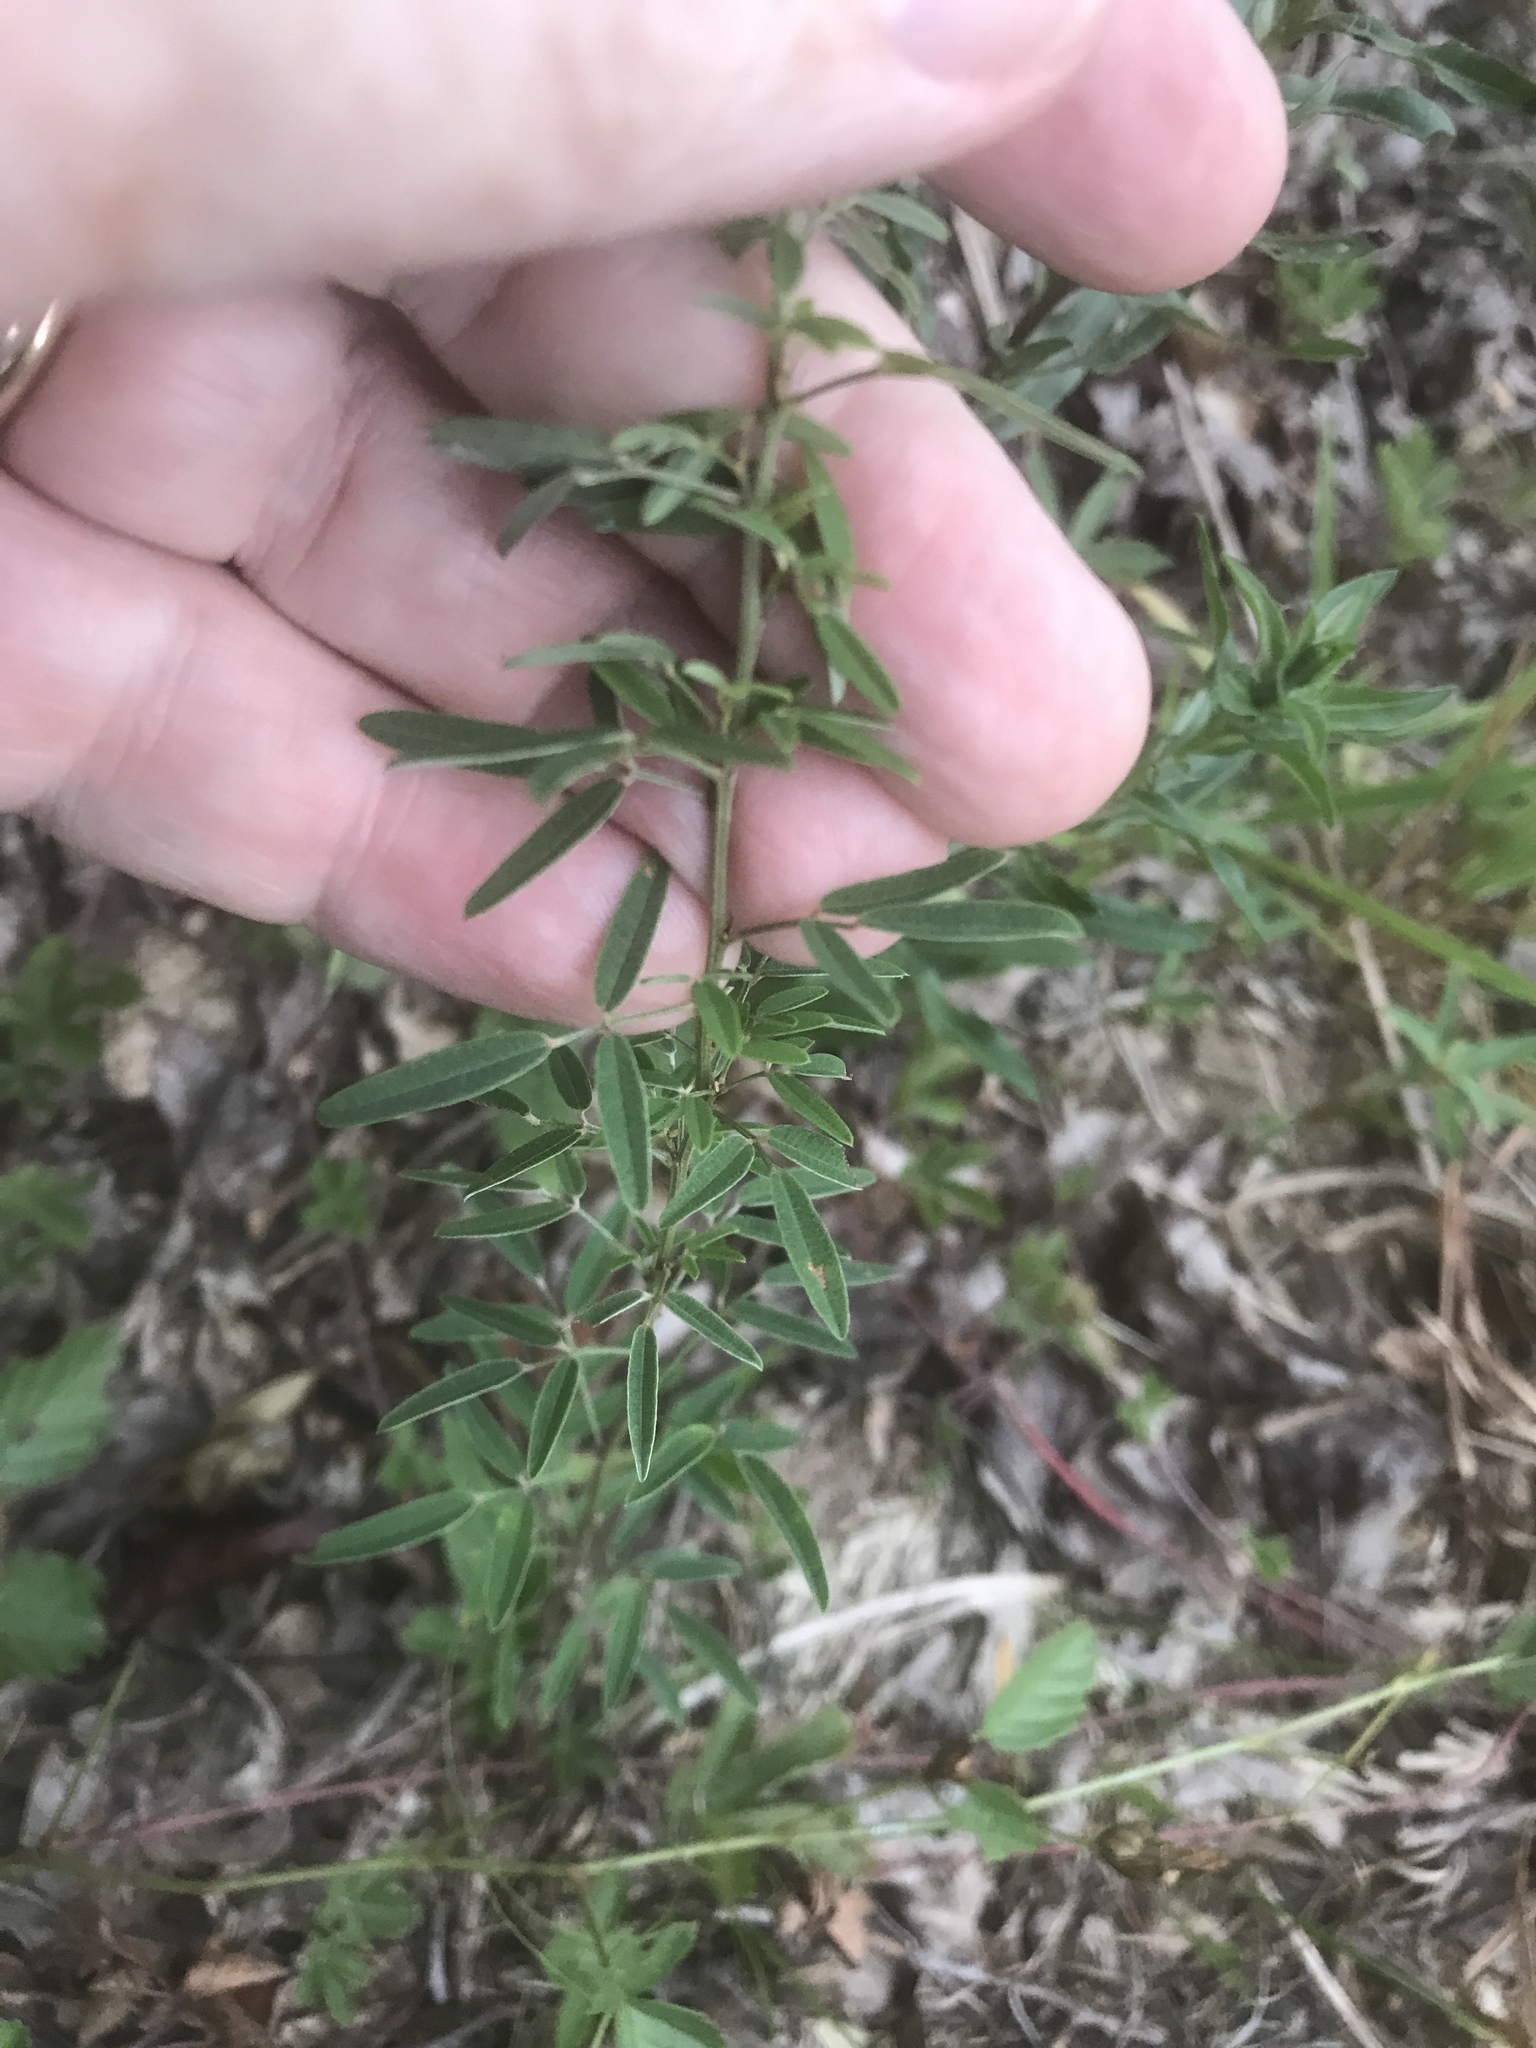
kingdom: Plantae
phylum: Tracheophyta
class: Magnoliopsida
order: Fabales
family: Fabaceae
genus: Lespedeza
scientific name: Lespedeza virginica
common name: Slender bush-clover
